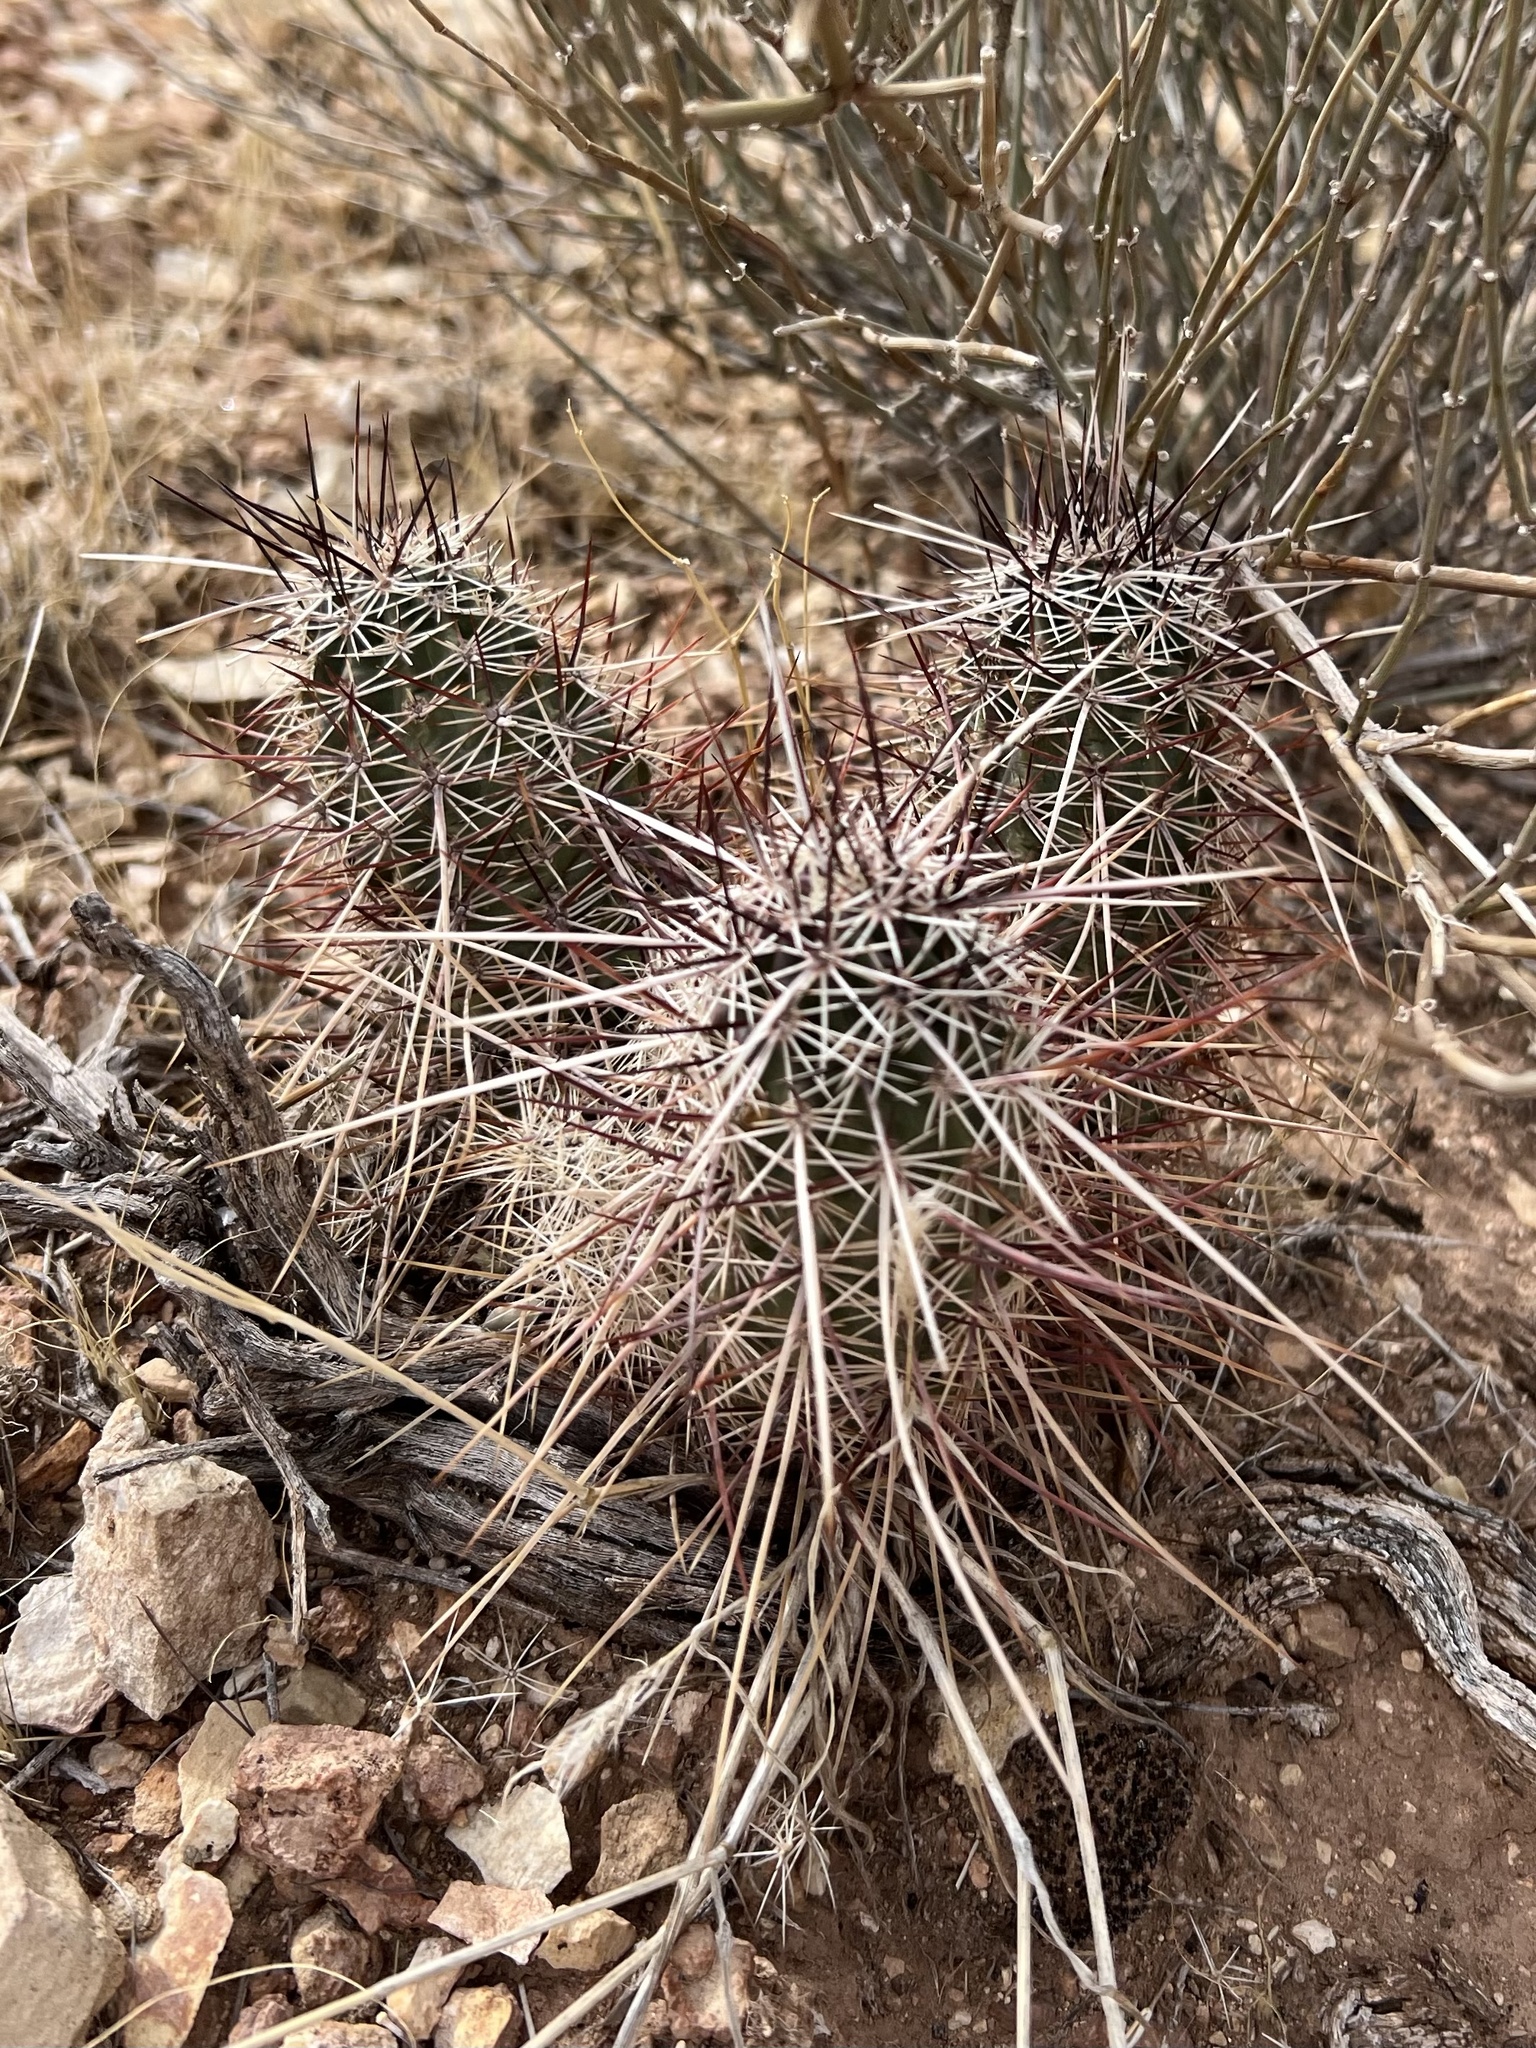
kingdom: Plantae
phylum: Tracheophyta
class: Magnoliopsida
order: Caryophyllales
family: Cactaceae
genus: Echinocereus
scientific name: Echinocereus engelmannii
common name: Engelmann's hedgehog cactus
